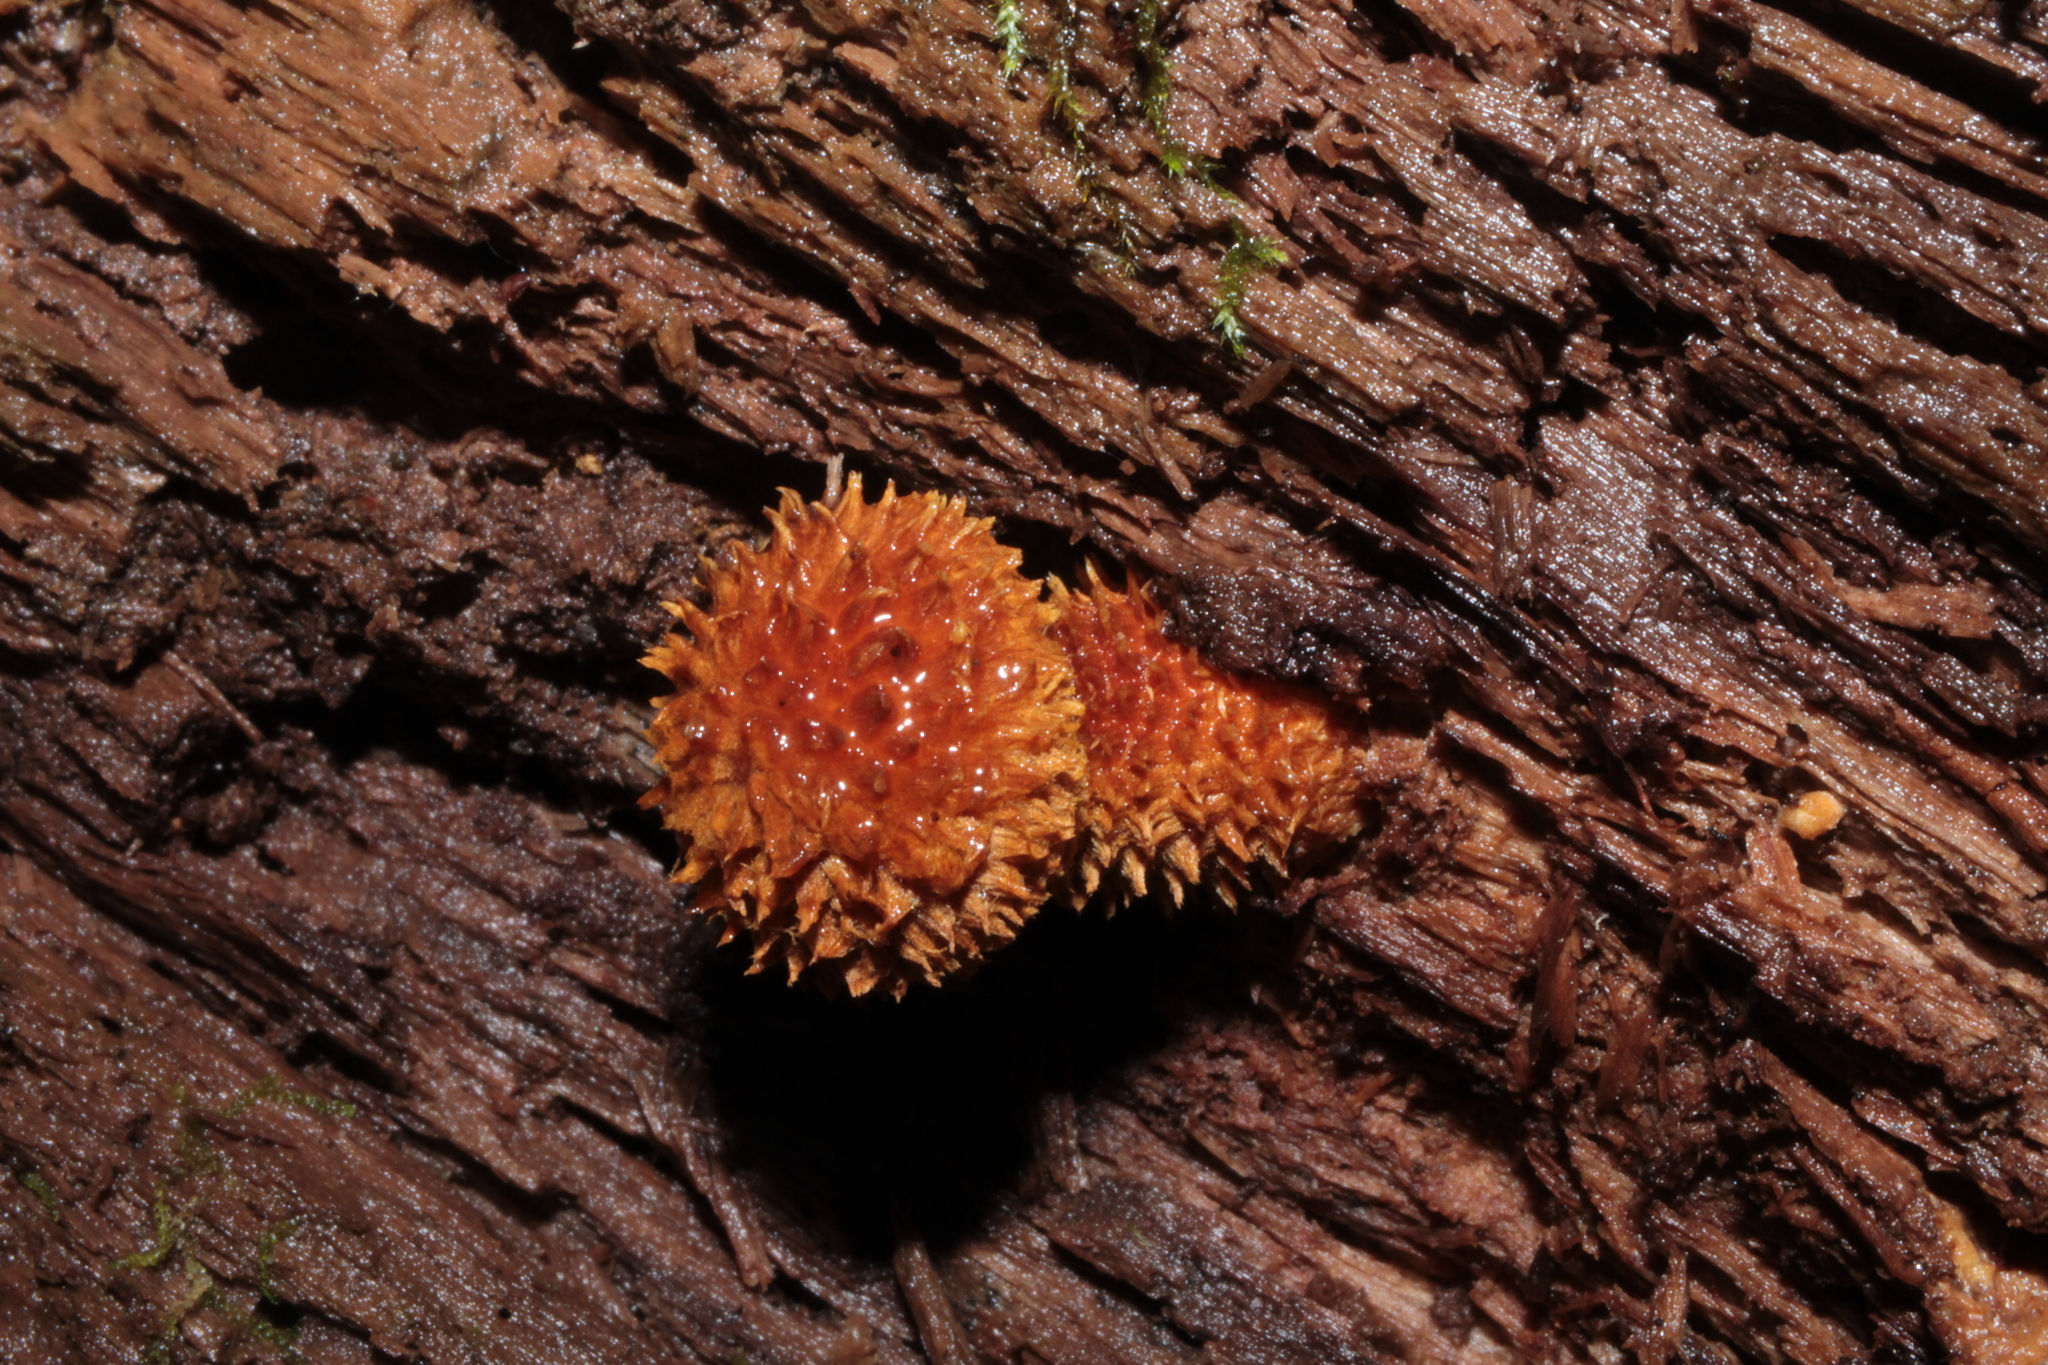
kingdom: Fungi
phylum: Basidiomycota
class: Agaricomycetes
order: Agaricales
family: Agaricaceae
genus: Leucopholiota
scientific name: Leucopholiota decorosa
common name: Decorated pholiota
